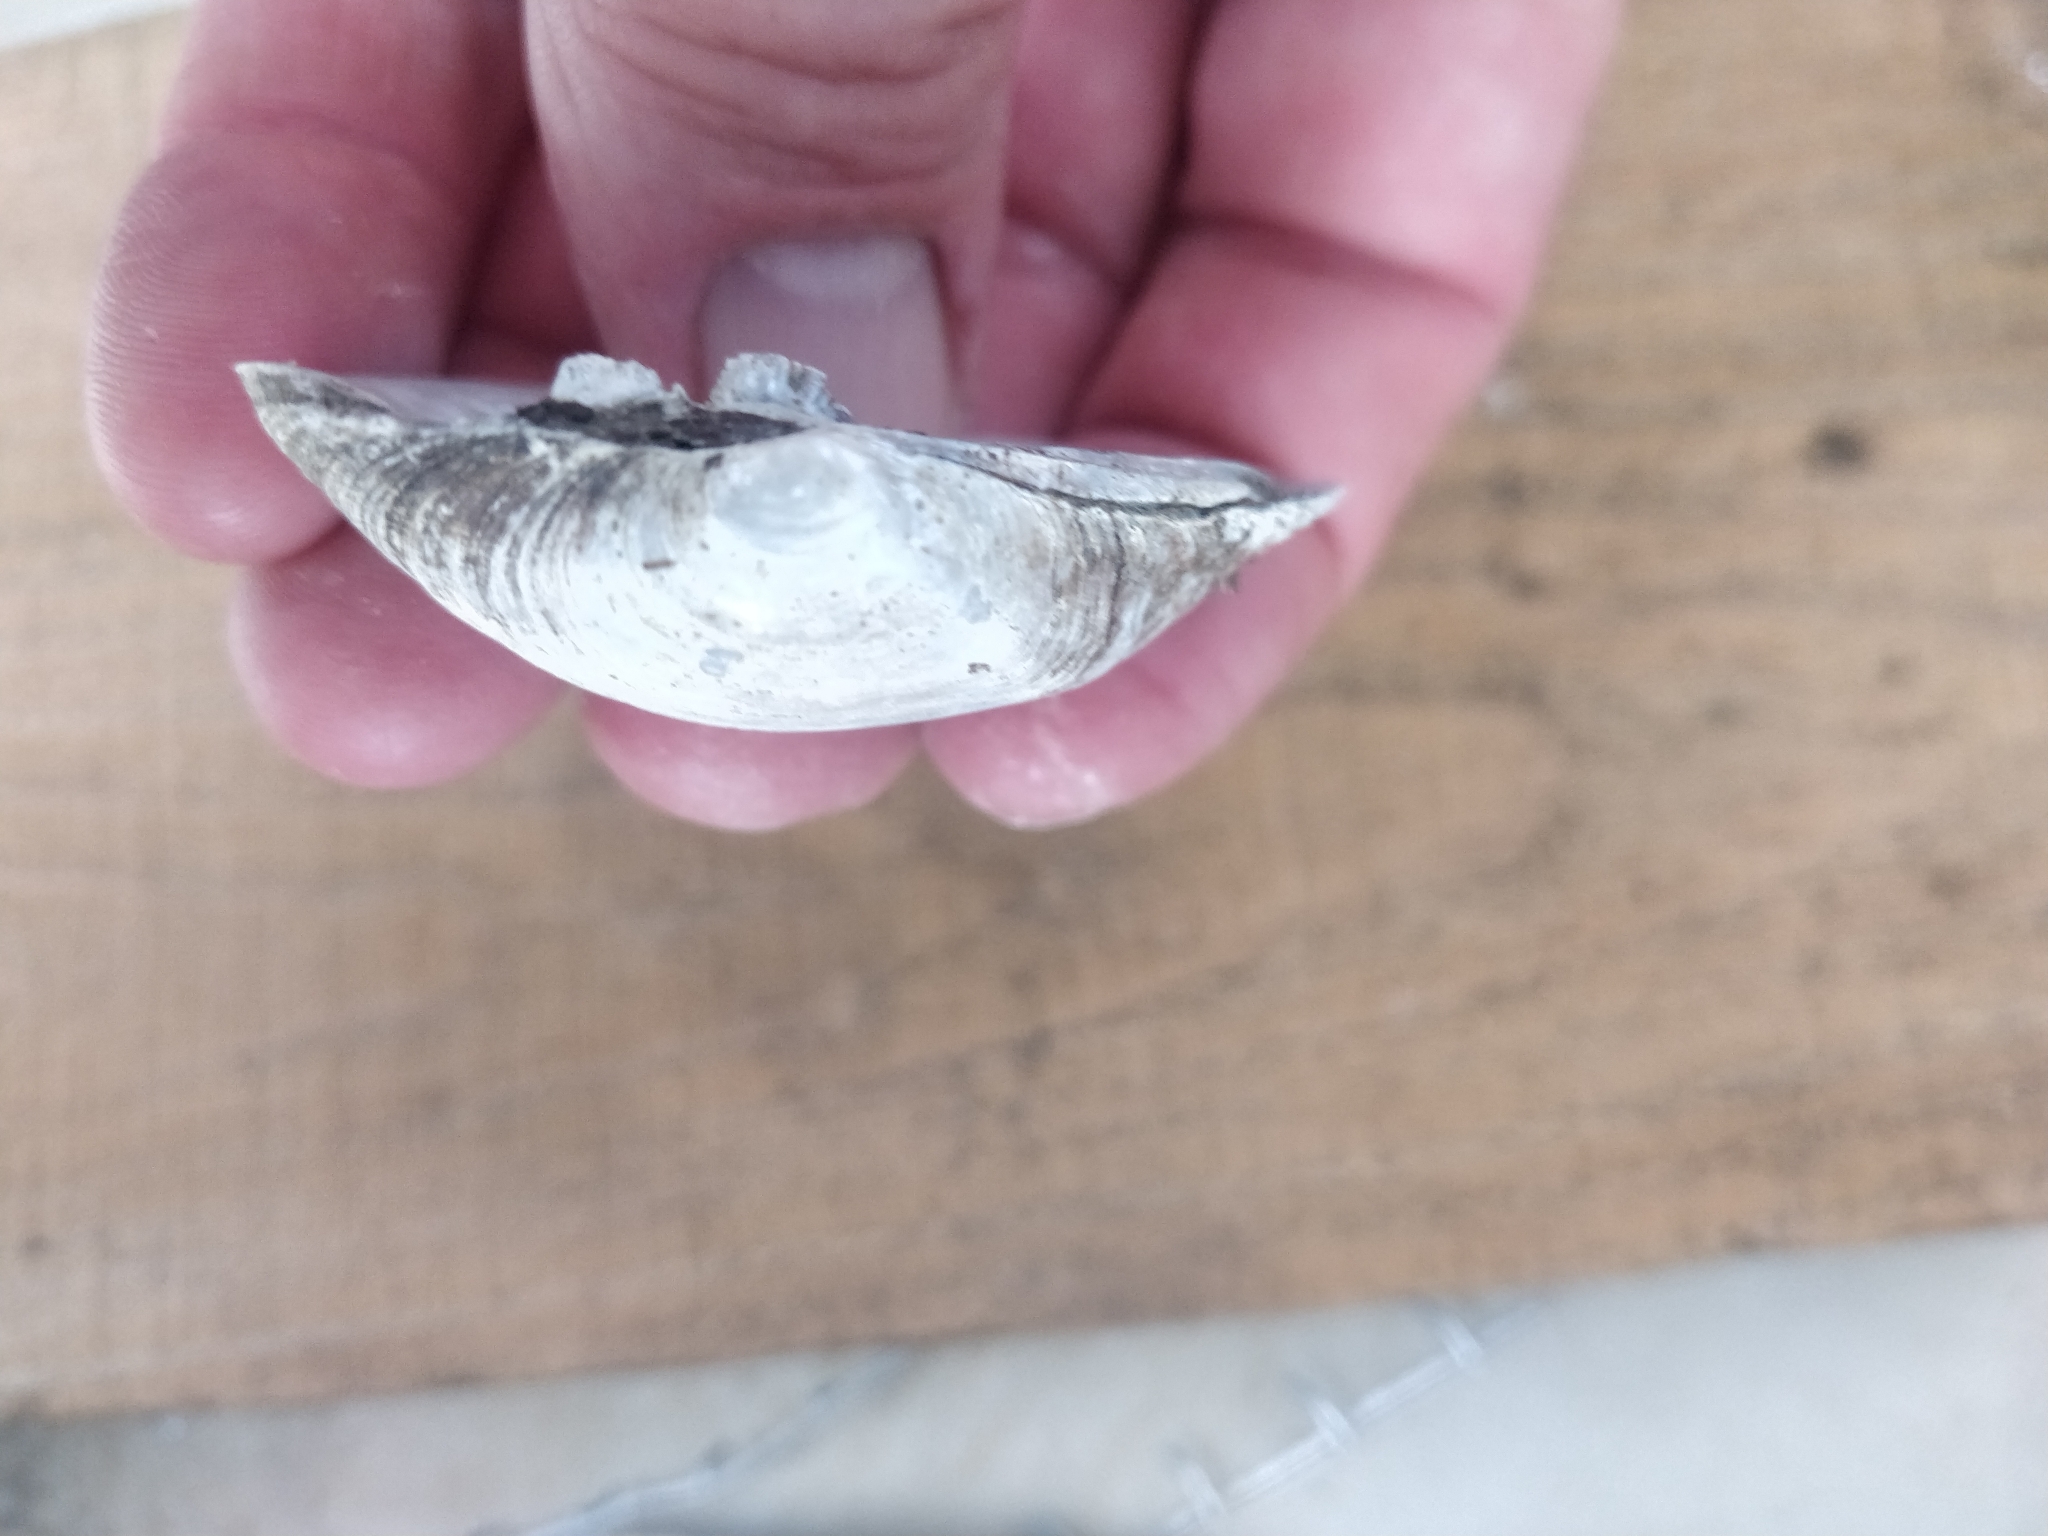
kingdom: Animalia
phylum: Mollusca
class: Bivalvia
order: Unionida
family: Unionidae
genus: Fusconaia
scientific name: Fusconaia flava
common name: Wabash pigtoe
